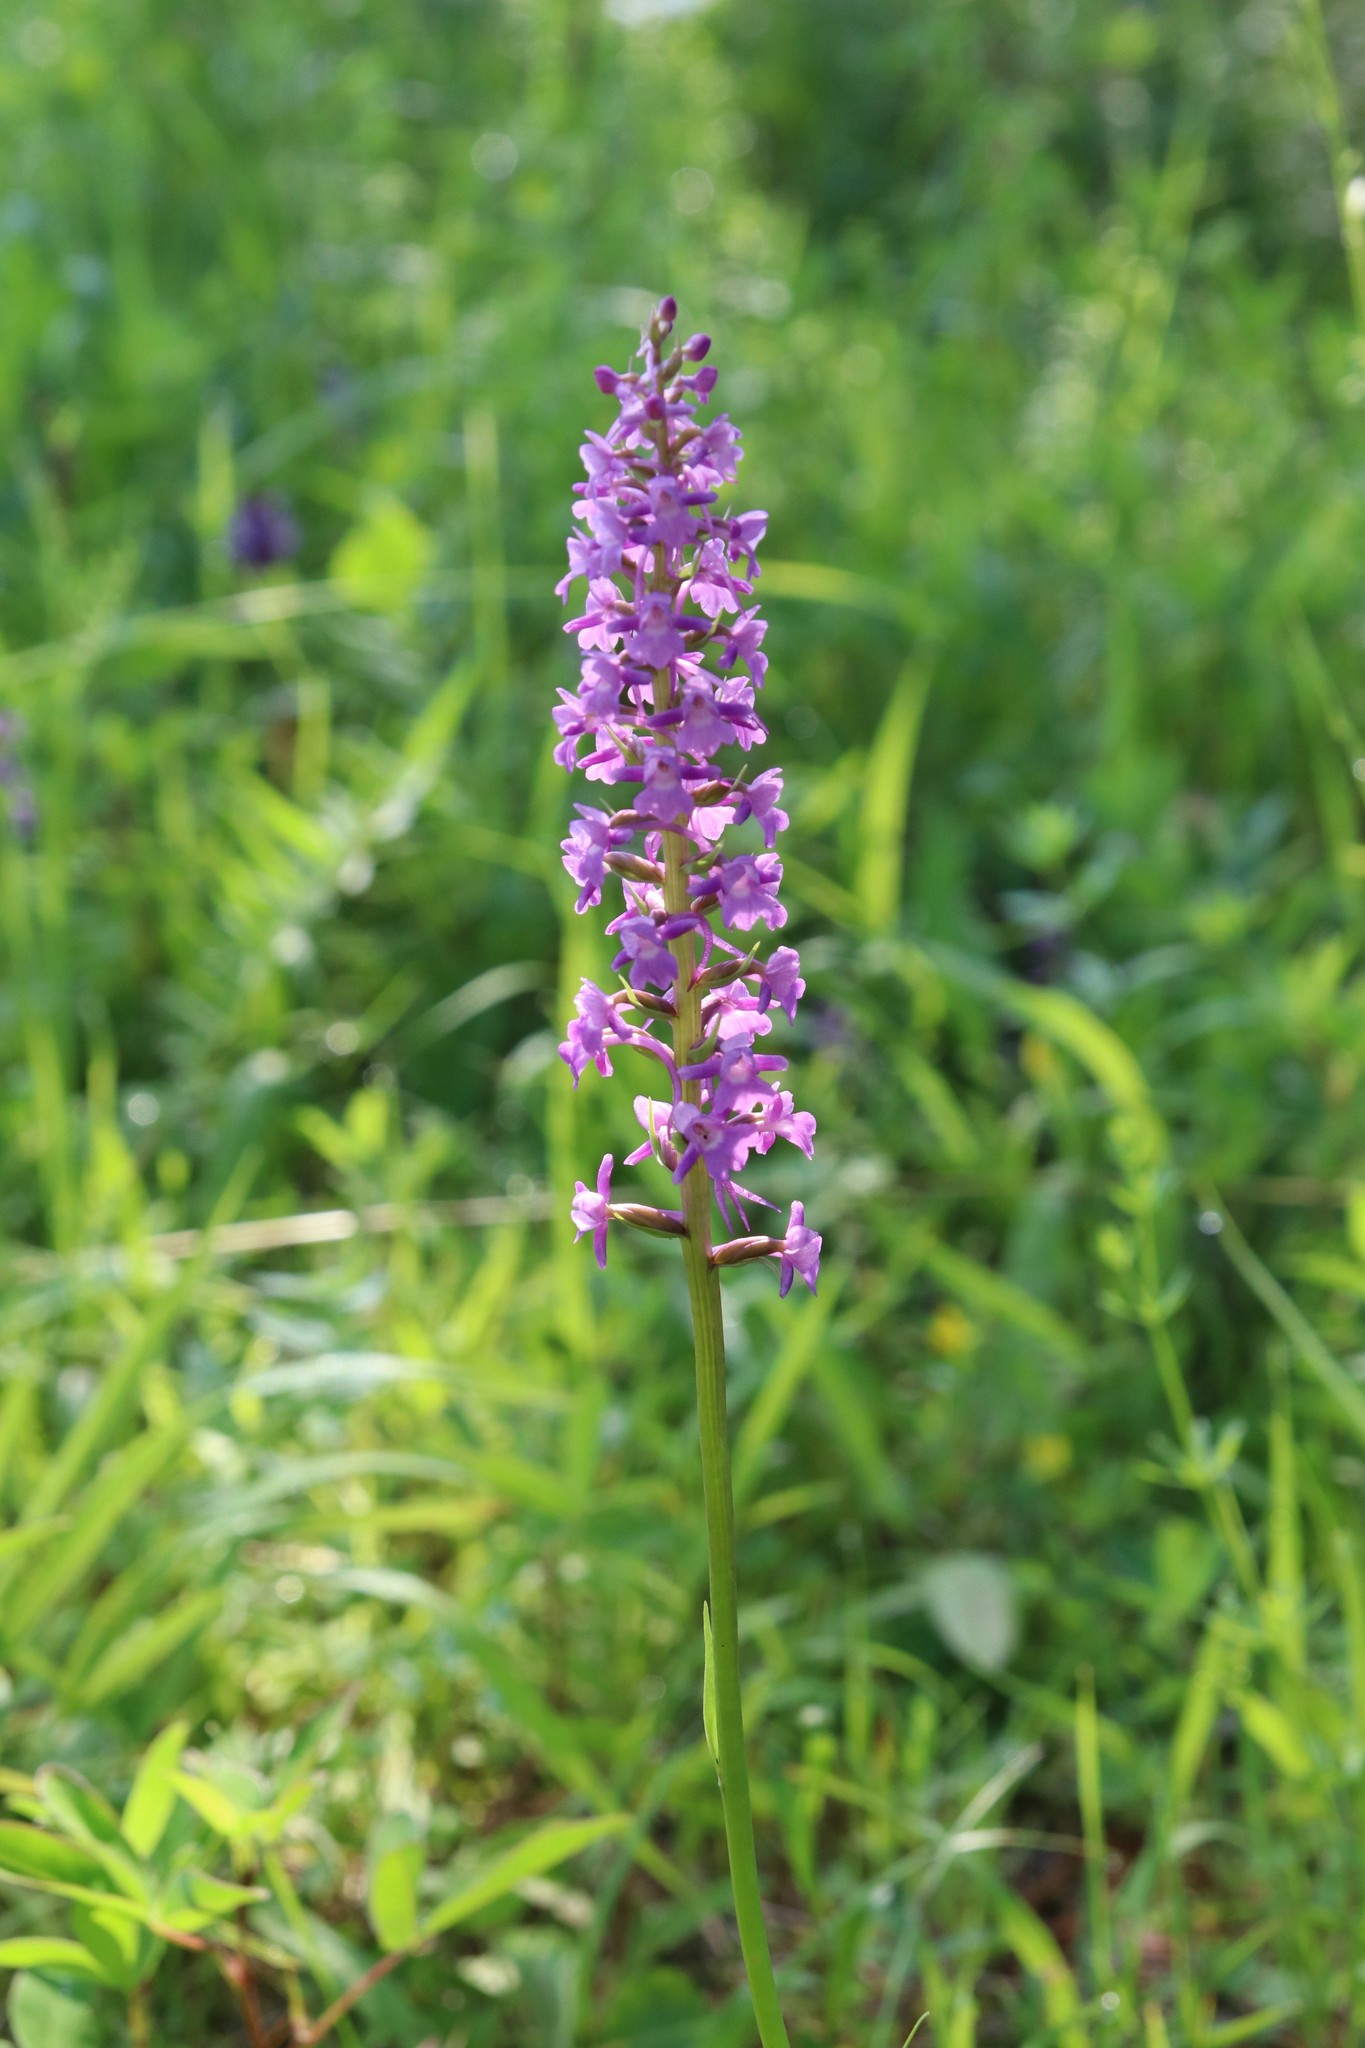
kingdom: Plantae
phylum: Tracheophyta
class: Liliopsida
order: Asparagales
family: Orchidaceae
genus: Gymnadenia
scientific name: Gymnadenia conopsea
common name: Fragrant orchid
